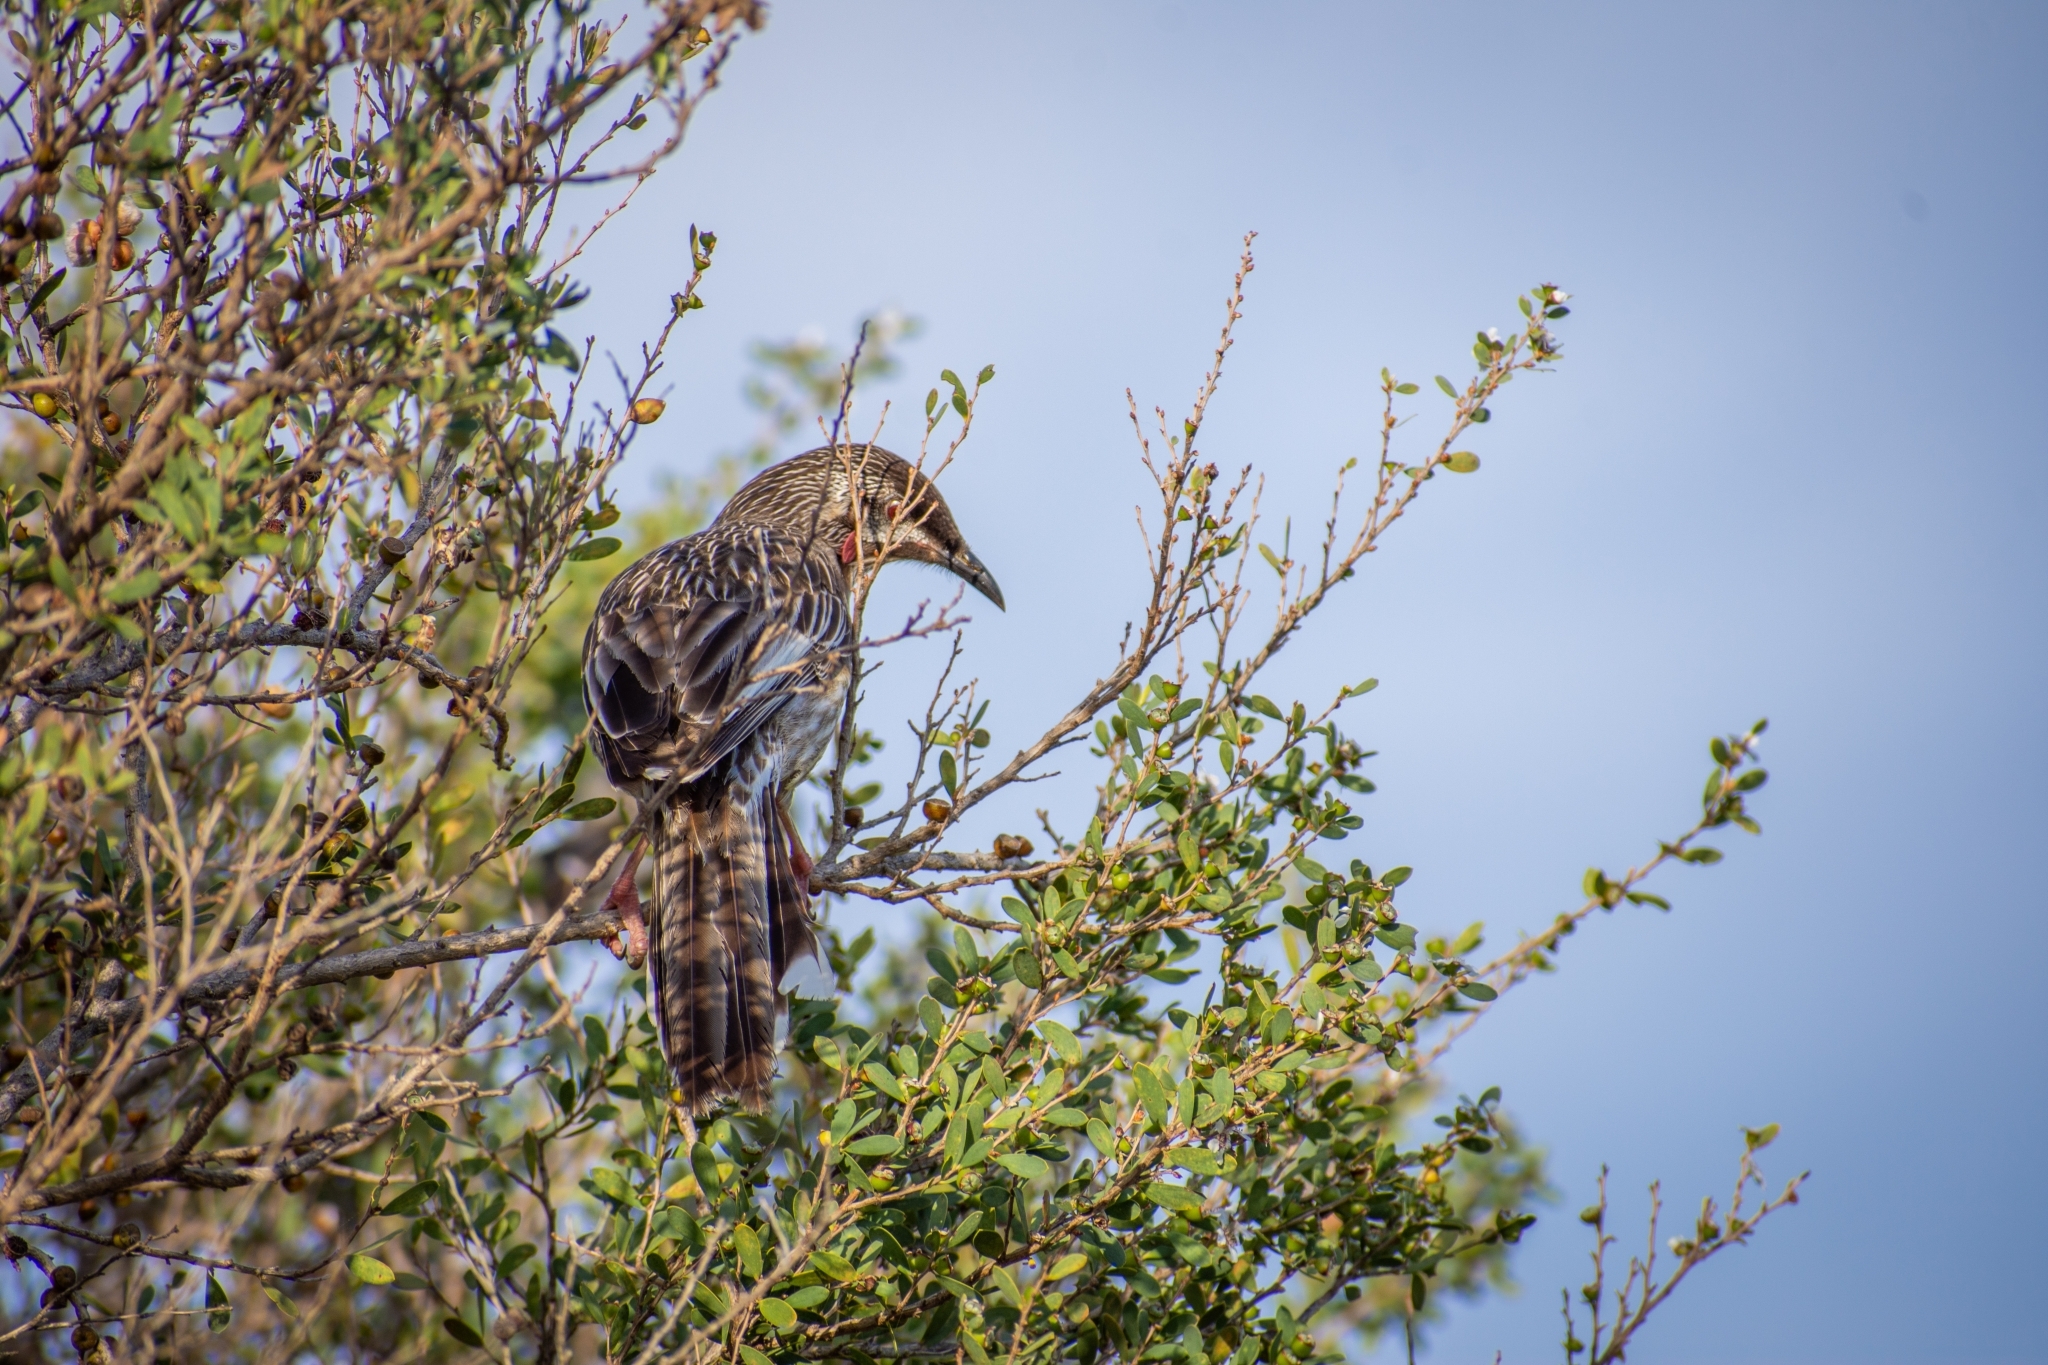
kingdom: Animalia
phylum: Chordata
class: Aves
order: Passeriformes
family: Meliphagidae
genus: Anthochaera
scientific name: Anthochaera carunculata
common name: Red wattlebird
